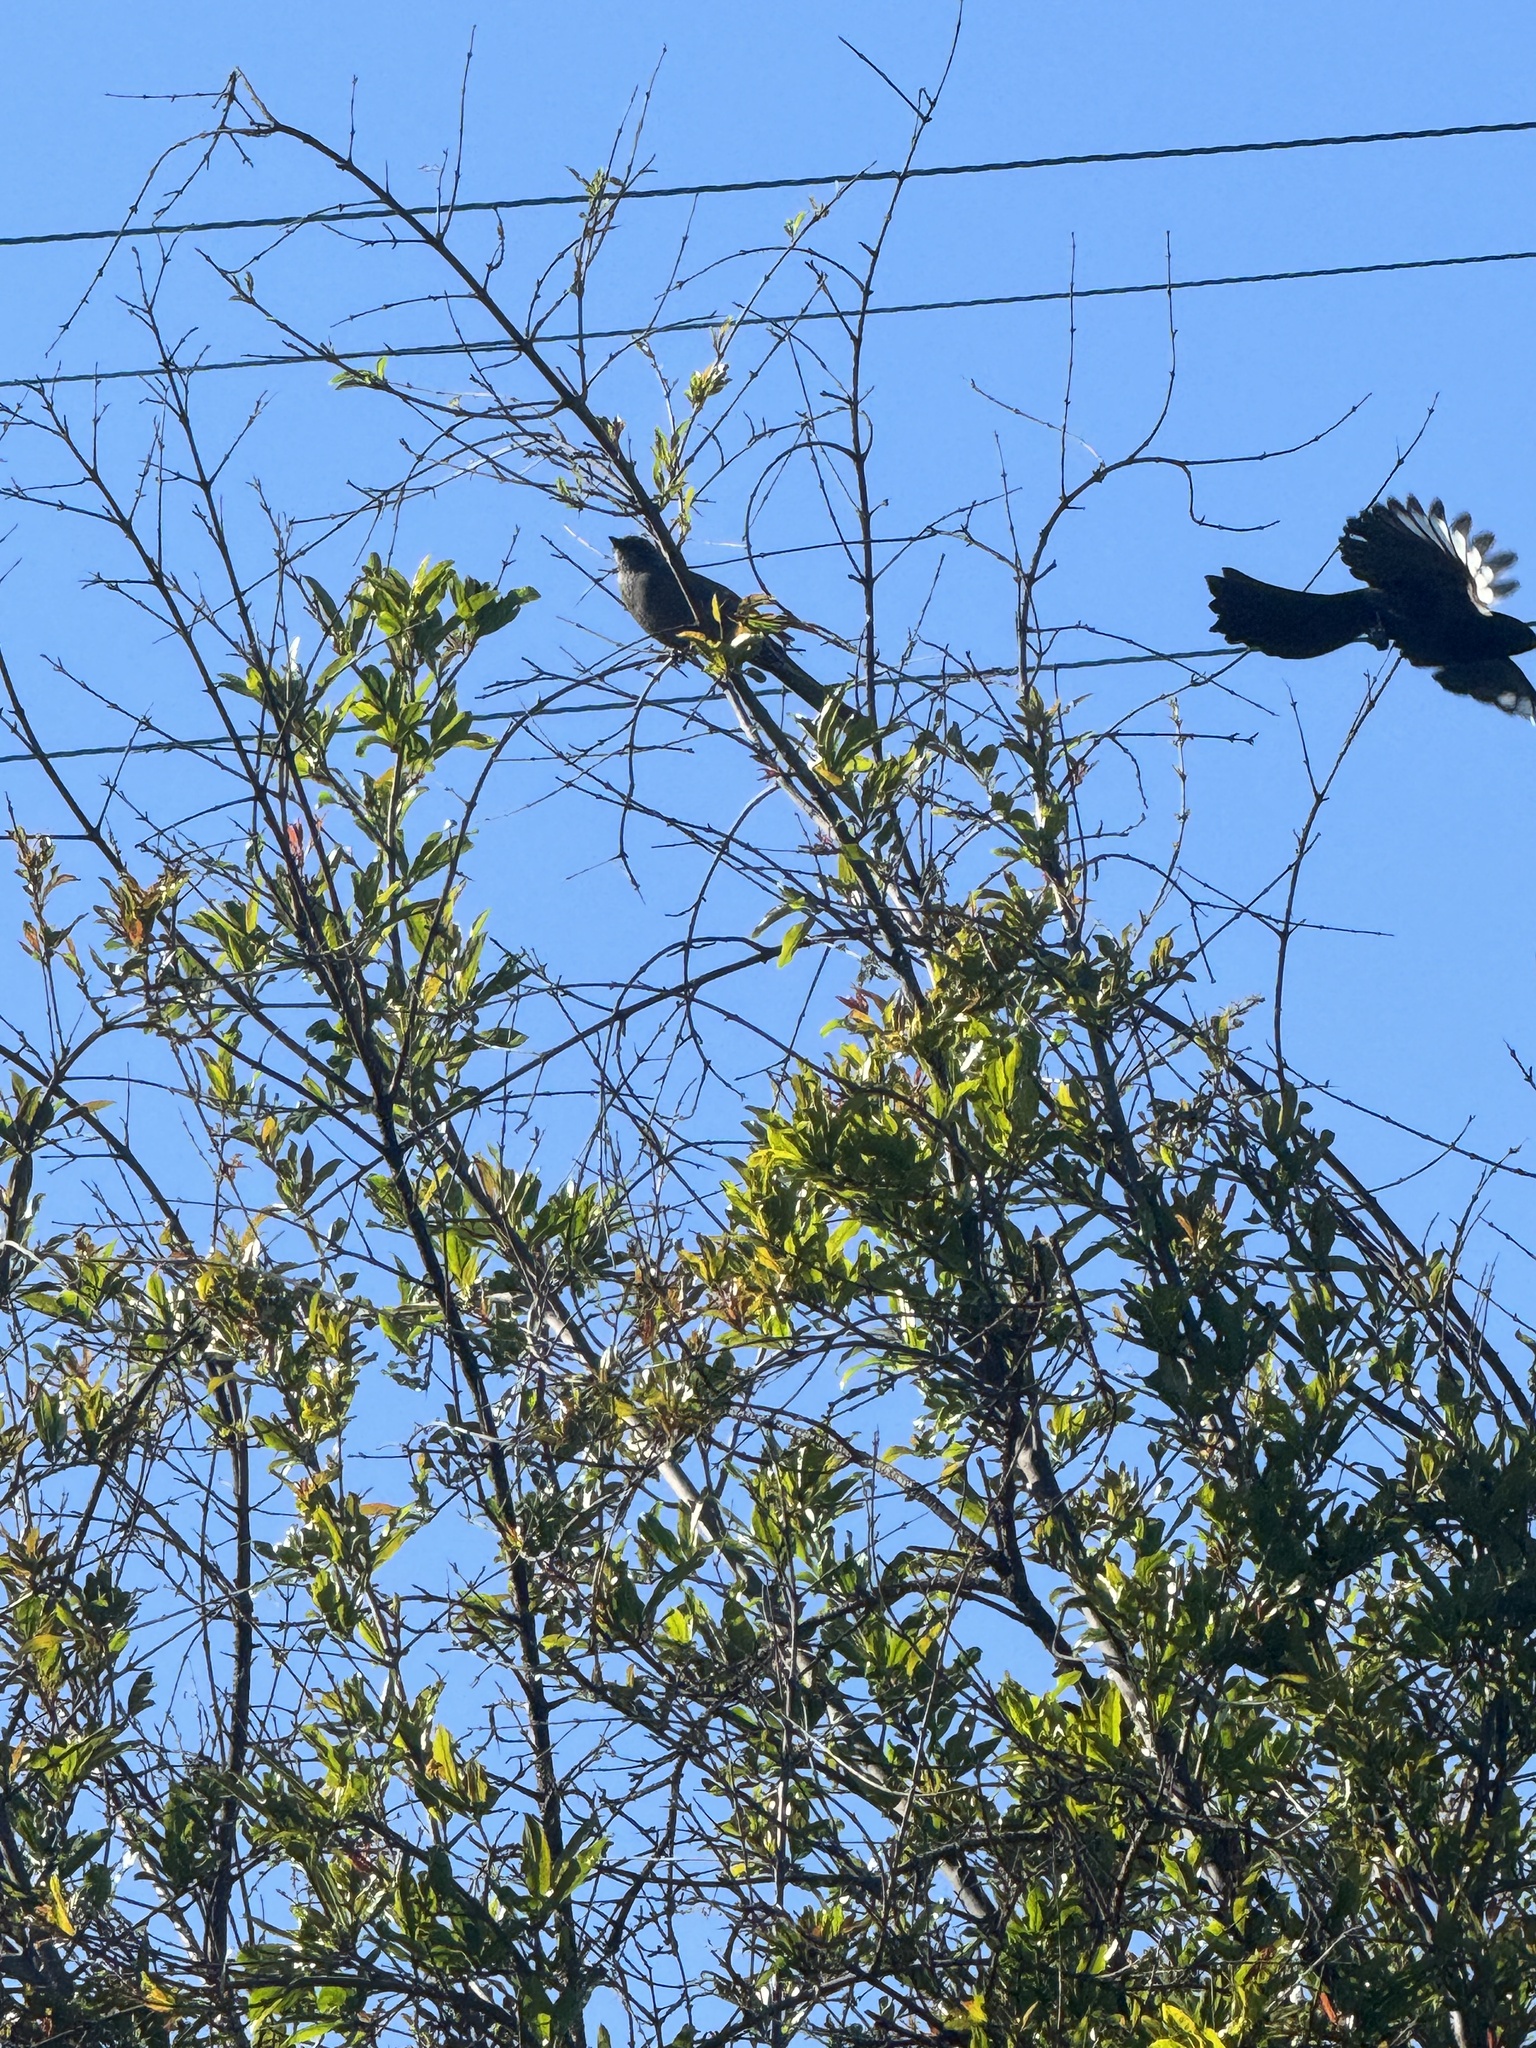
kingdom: Animalia
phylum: Chordata
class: Aves
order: Passeriformes
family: Ptilogonatidae
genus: Phainopepla
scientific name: Phainopepla nitens
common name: Phainopepla
